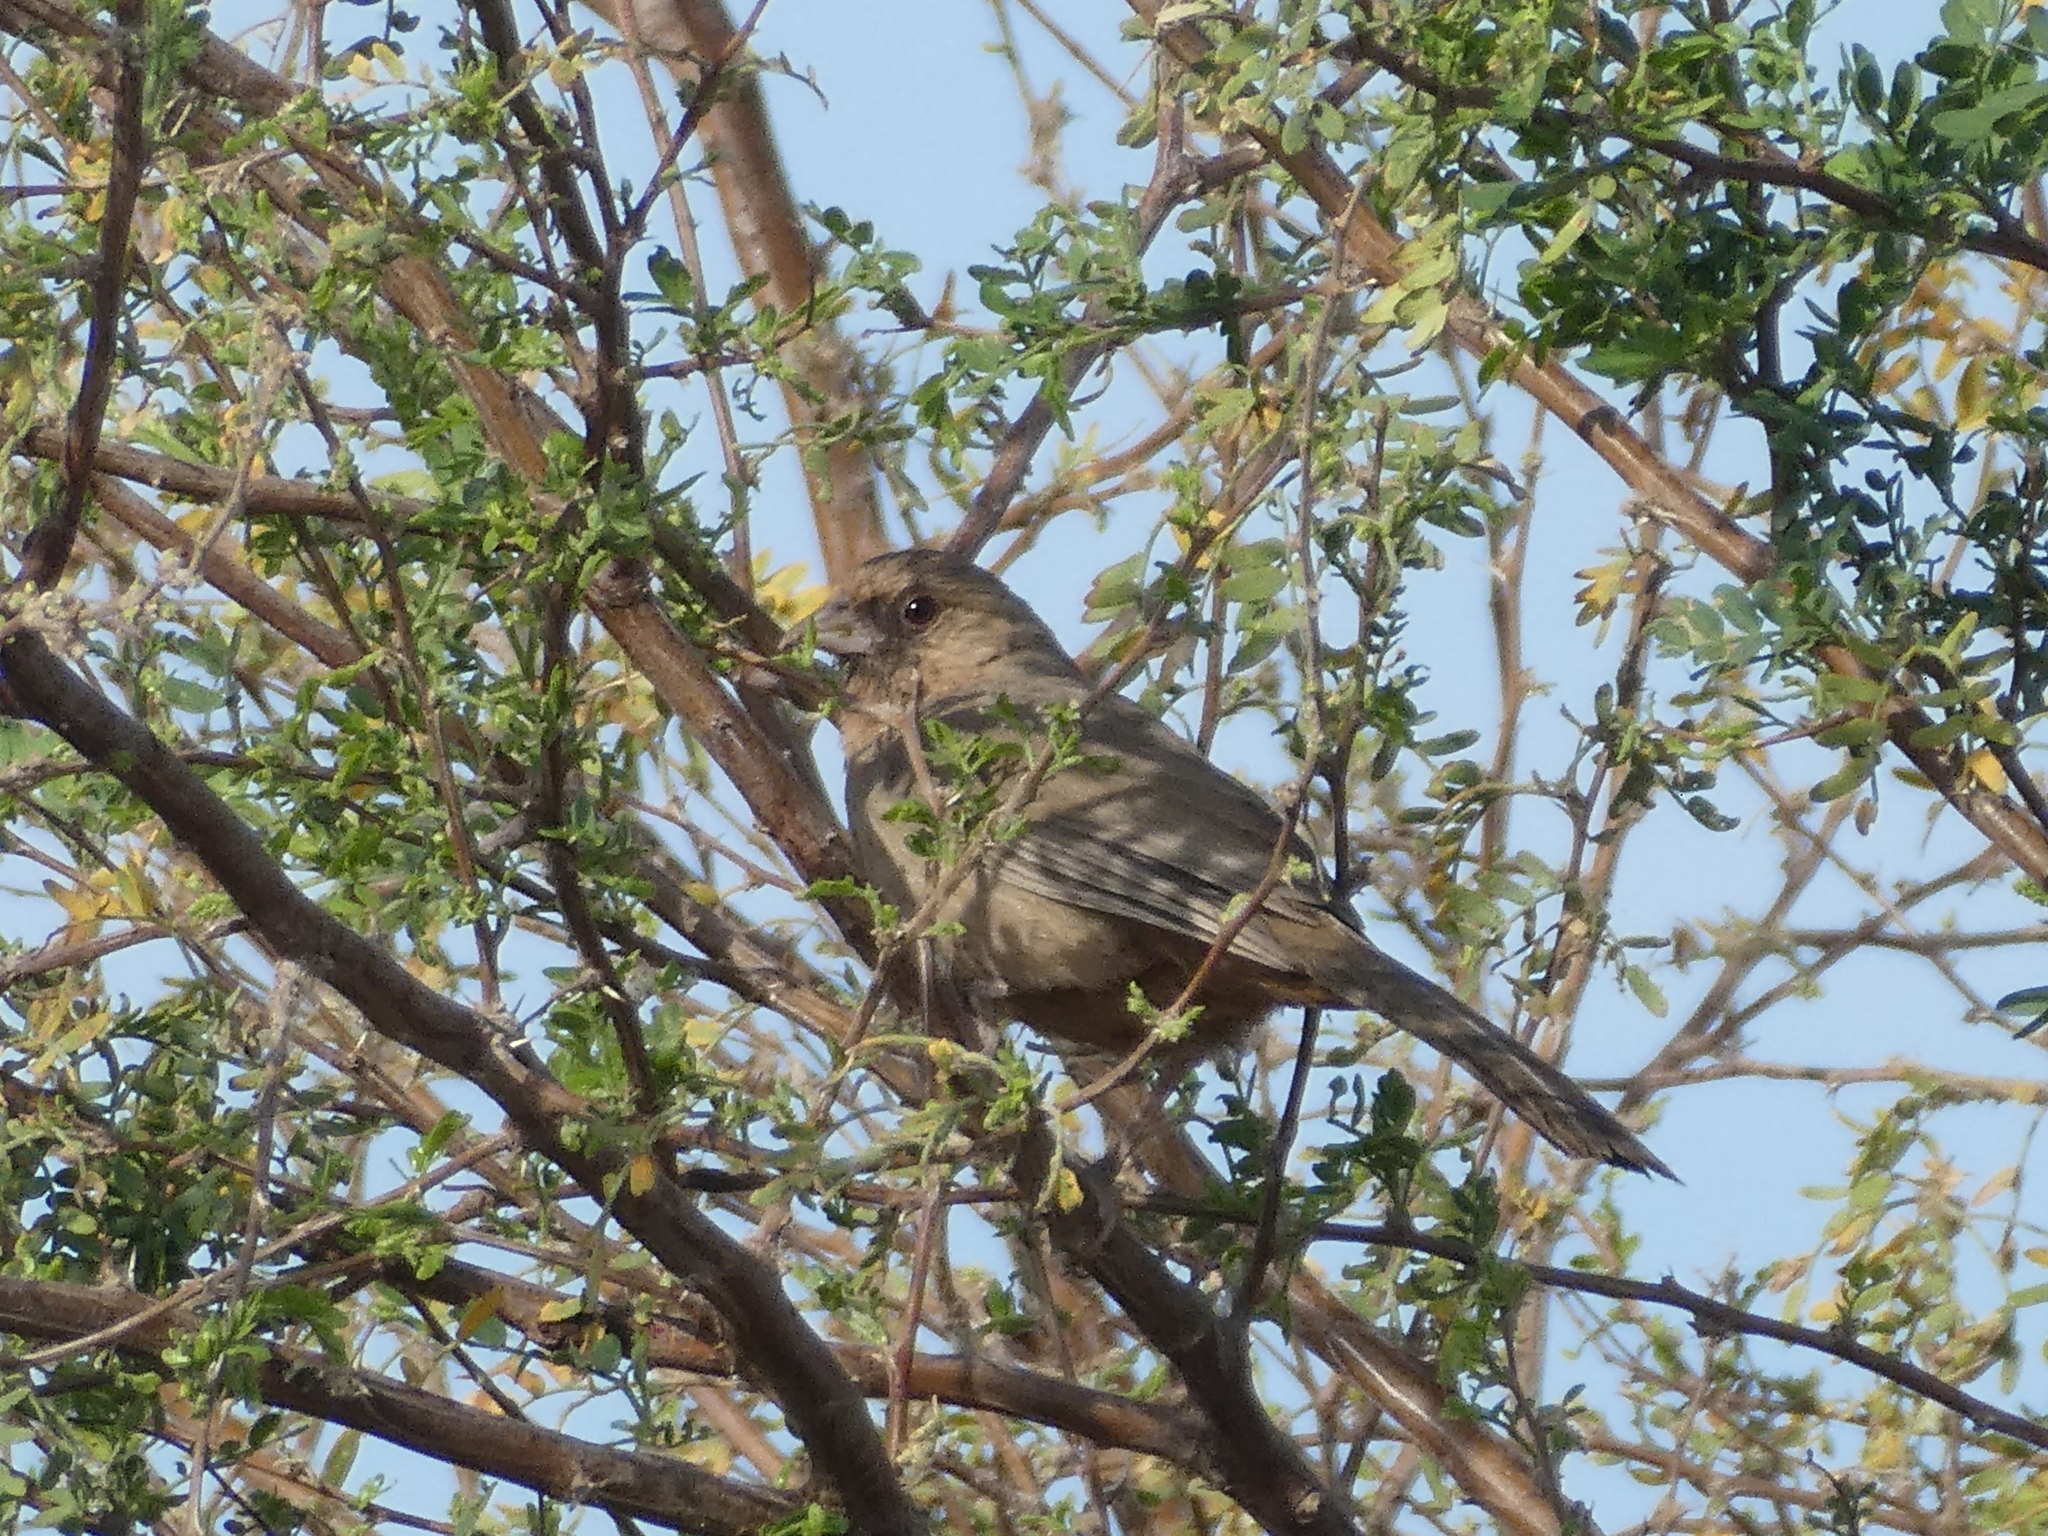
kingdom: Animalia
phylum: Chordata
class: Aves
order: Passeriformes
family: Passerellidae
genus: Melozone
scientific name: Melozone aberti
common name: Abert's towhee
